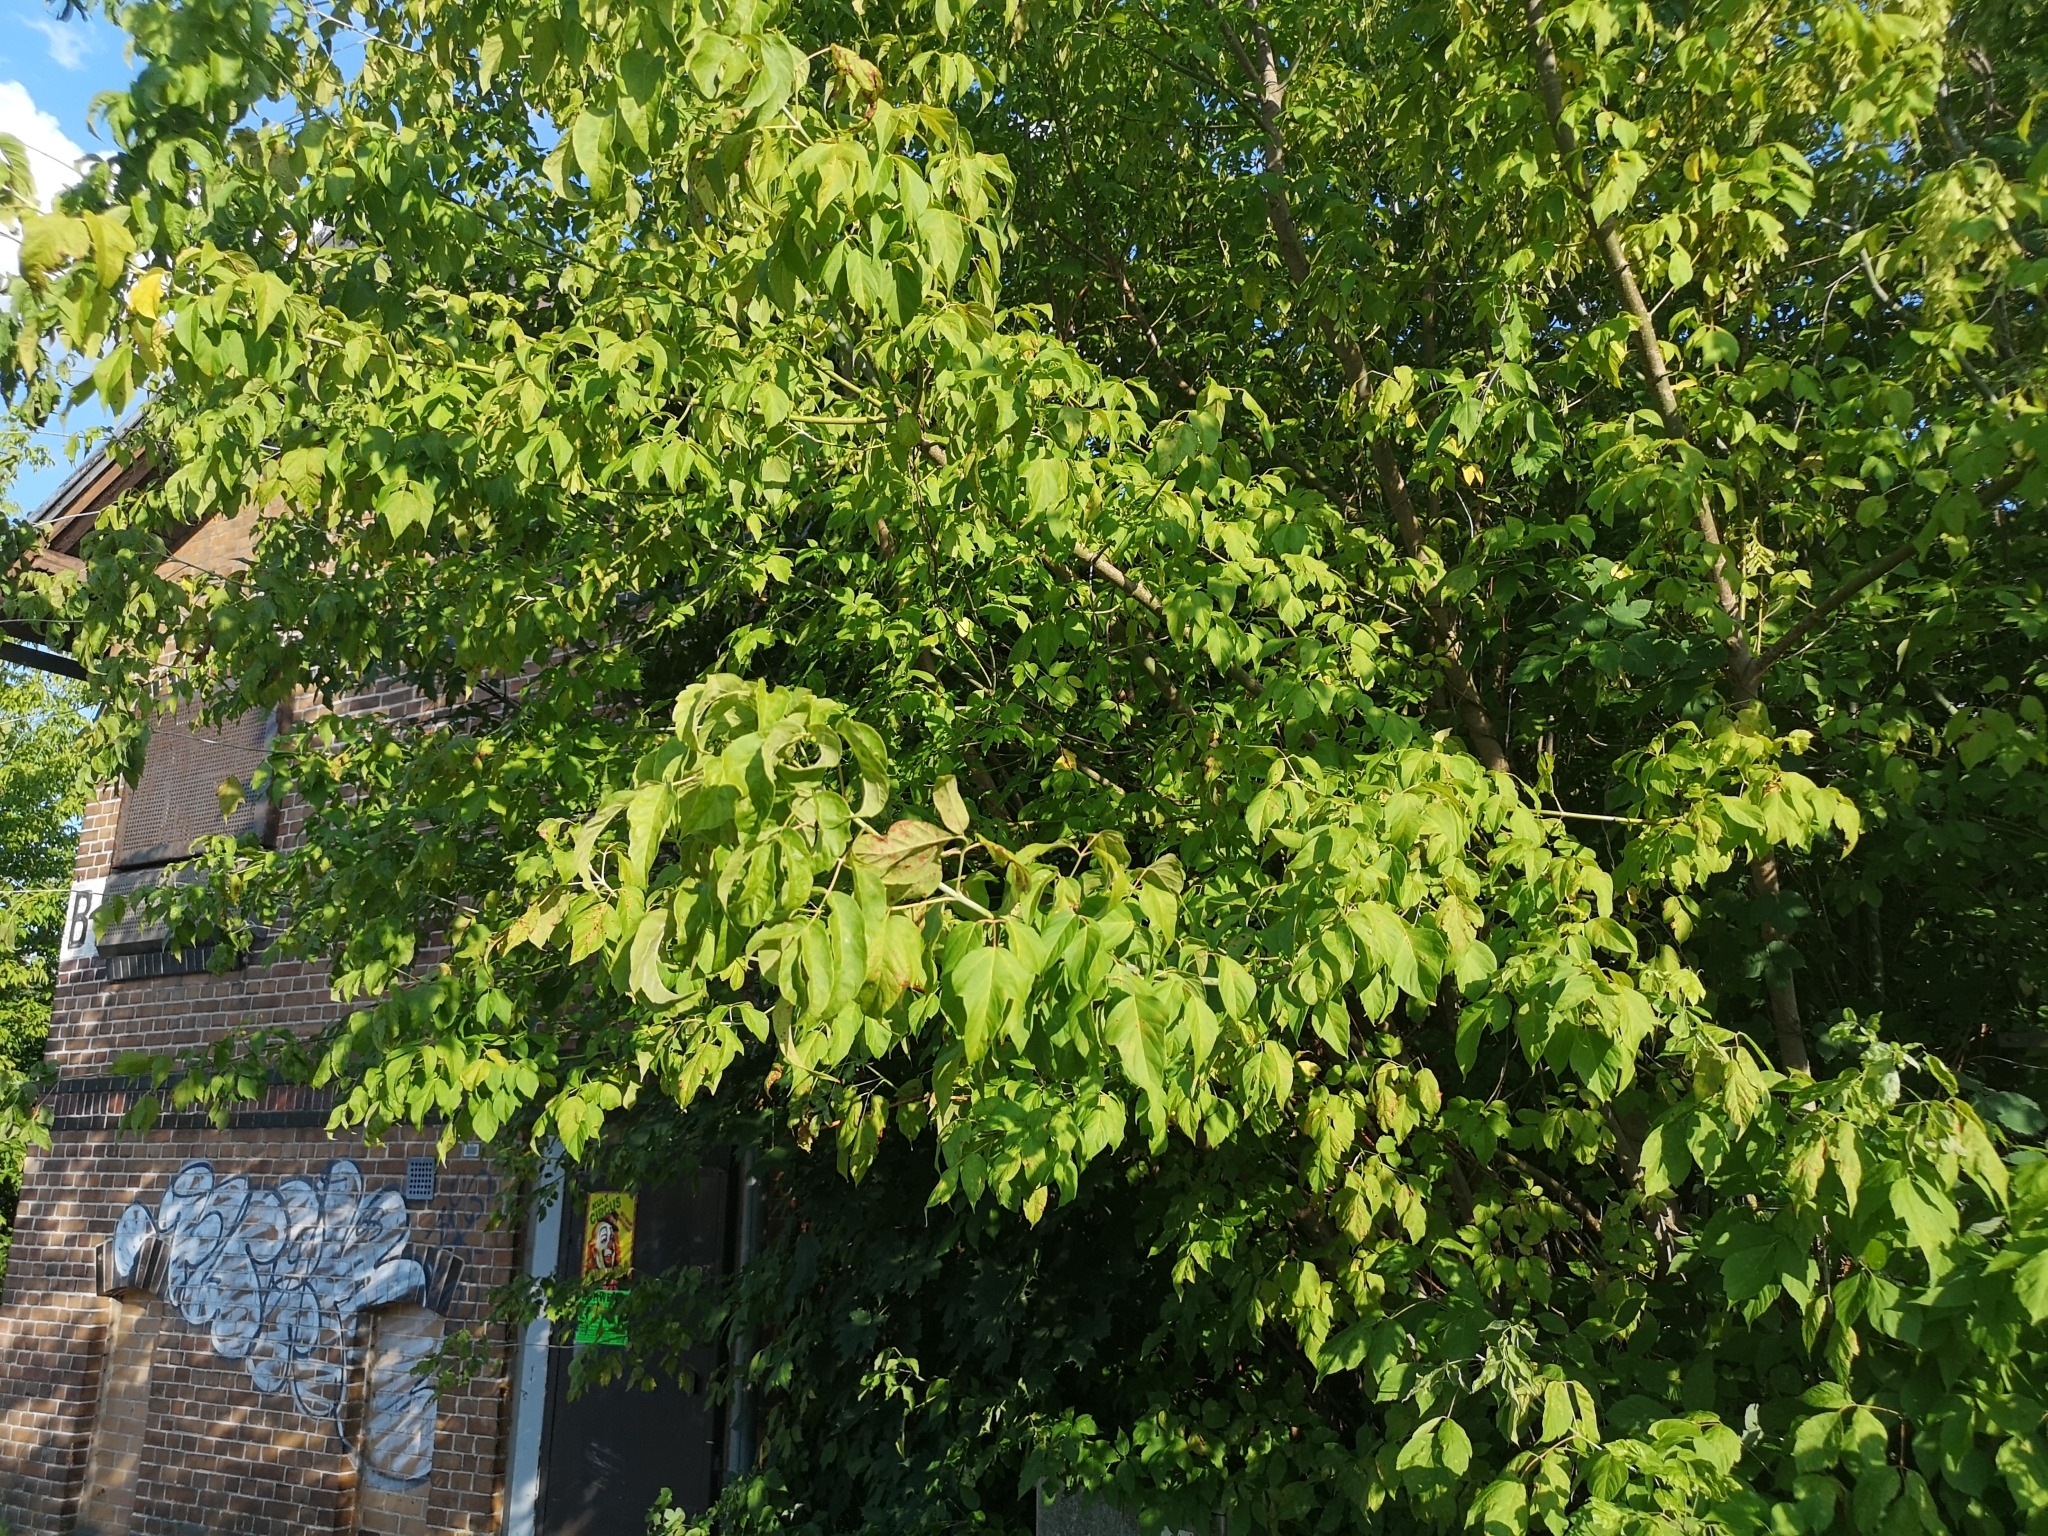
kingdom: Plantae
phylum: Tracheophyta
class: Magnoliopsida
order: Sapindales
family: Sapindaceae
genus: Acer
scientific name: Acer negundo
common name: Ashleaf maple
